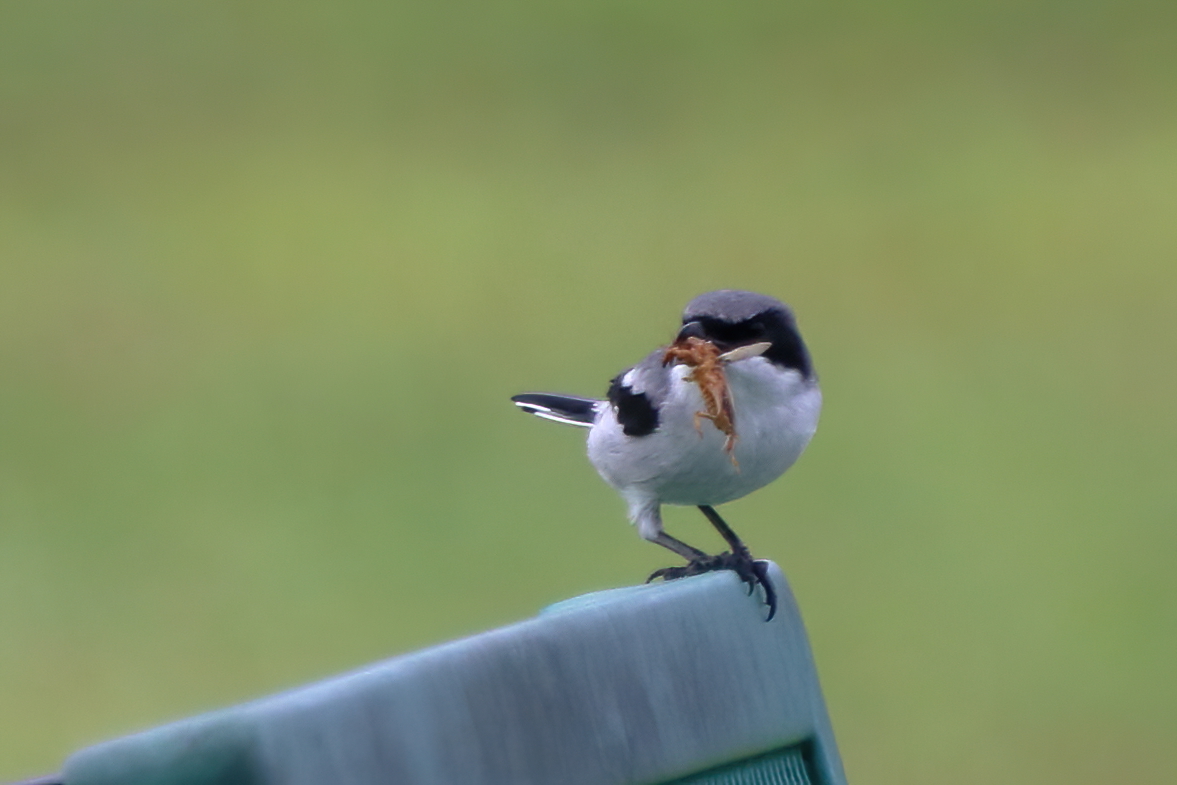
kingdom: Animalia
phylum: Chordata
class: Aves
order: Passeriformes
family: Laniidae
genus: Lanius
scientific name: Lanius ludovicianus
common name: Loggerhead shrike
